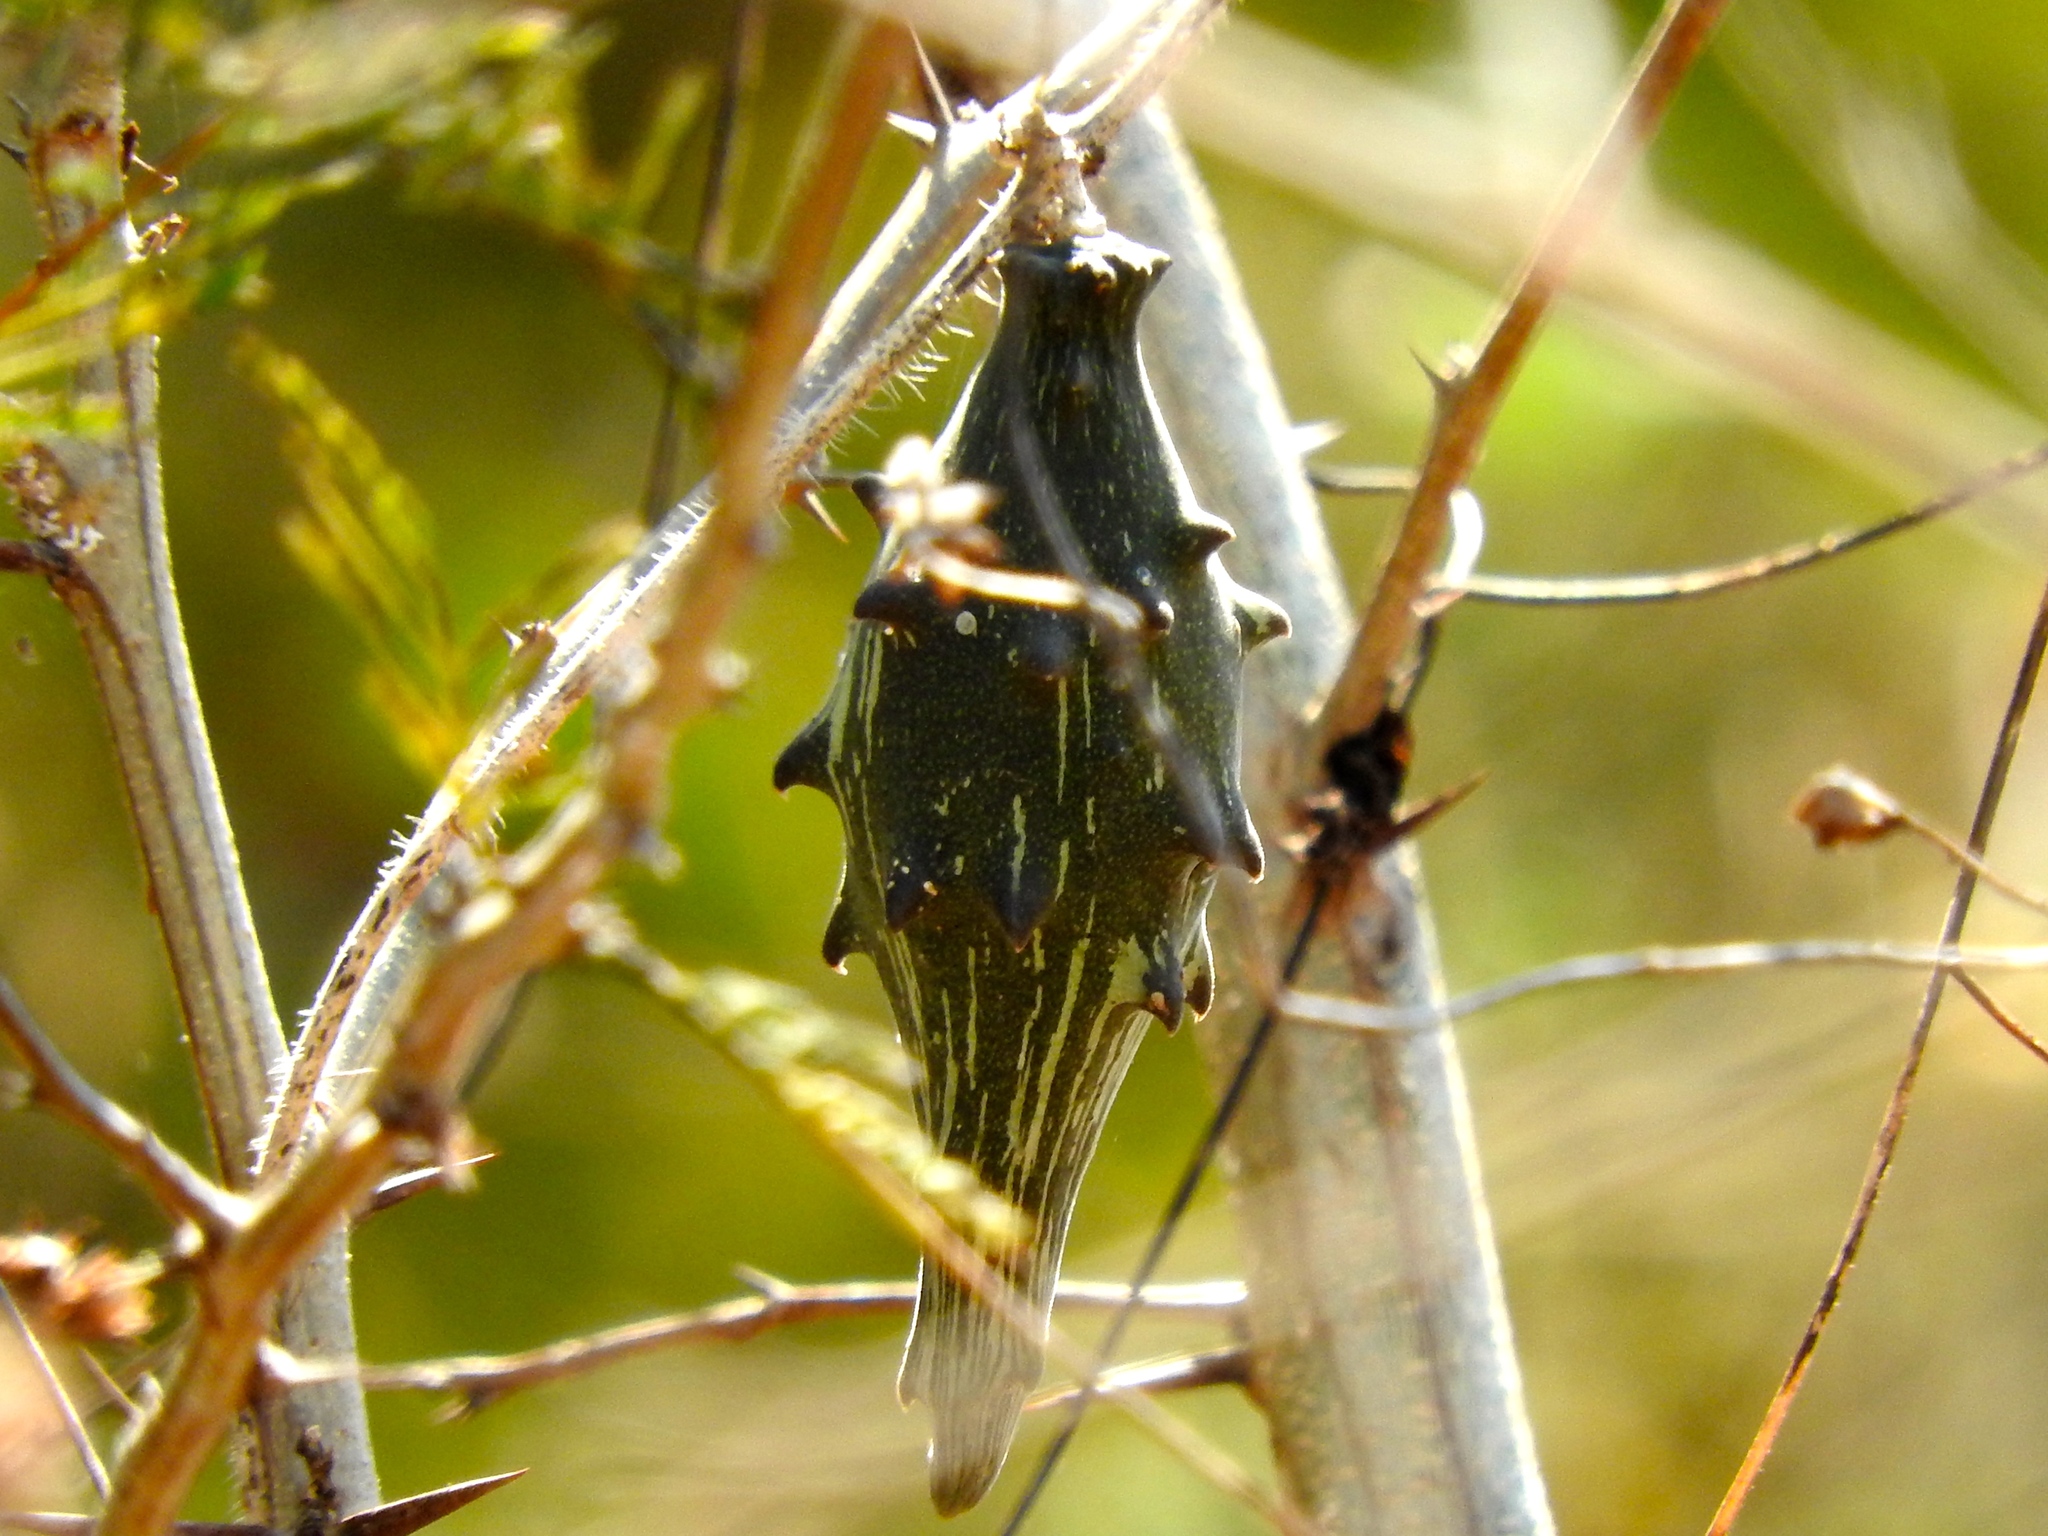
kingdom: Plantae
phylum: Tracheophyta
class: Magnoliopsida
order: Gentianales
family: Apocynaceae
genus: Dictyanthus
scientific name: Dictyanthus
